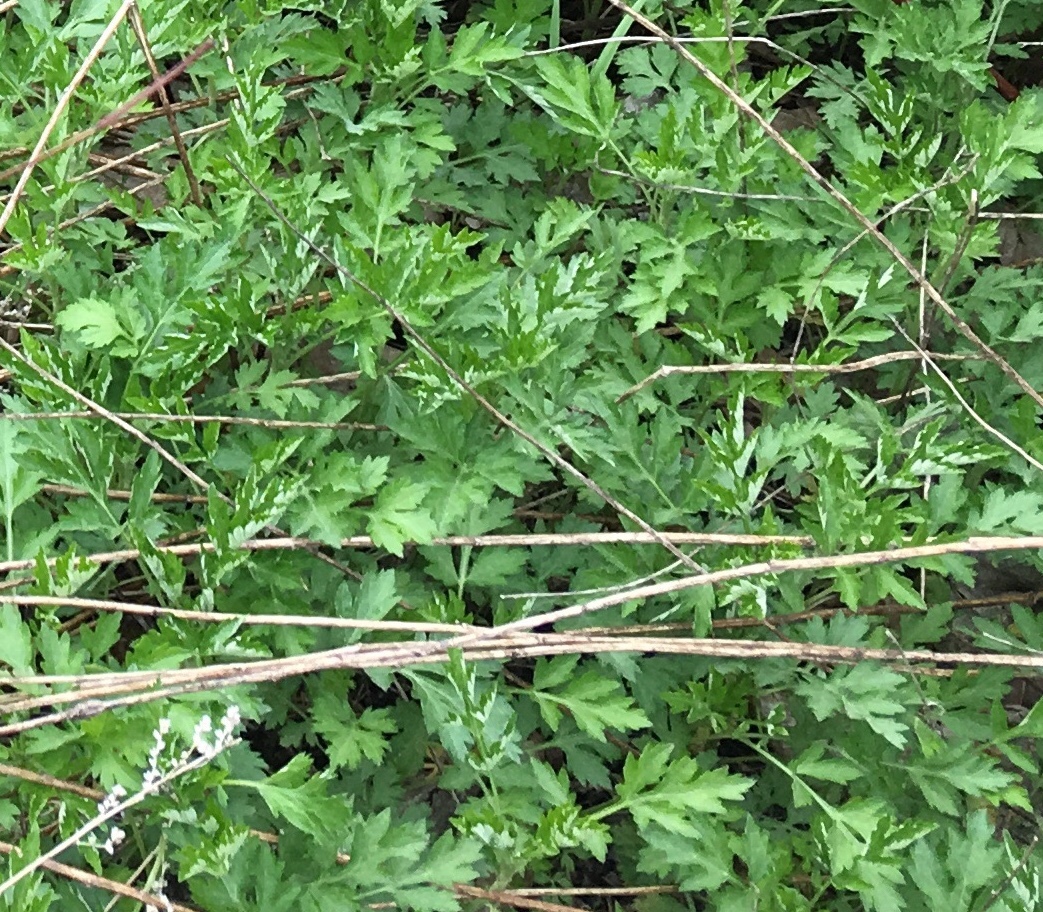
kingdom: Plantae
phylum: Tracheophyta
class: Magnoliopsida
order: Asterales
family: Asteraceae
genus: Artemisia
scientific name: Artemisia vulgaris
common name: Mugwort
